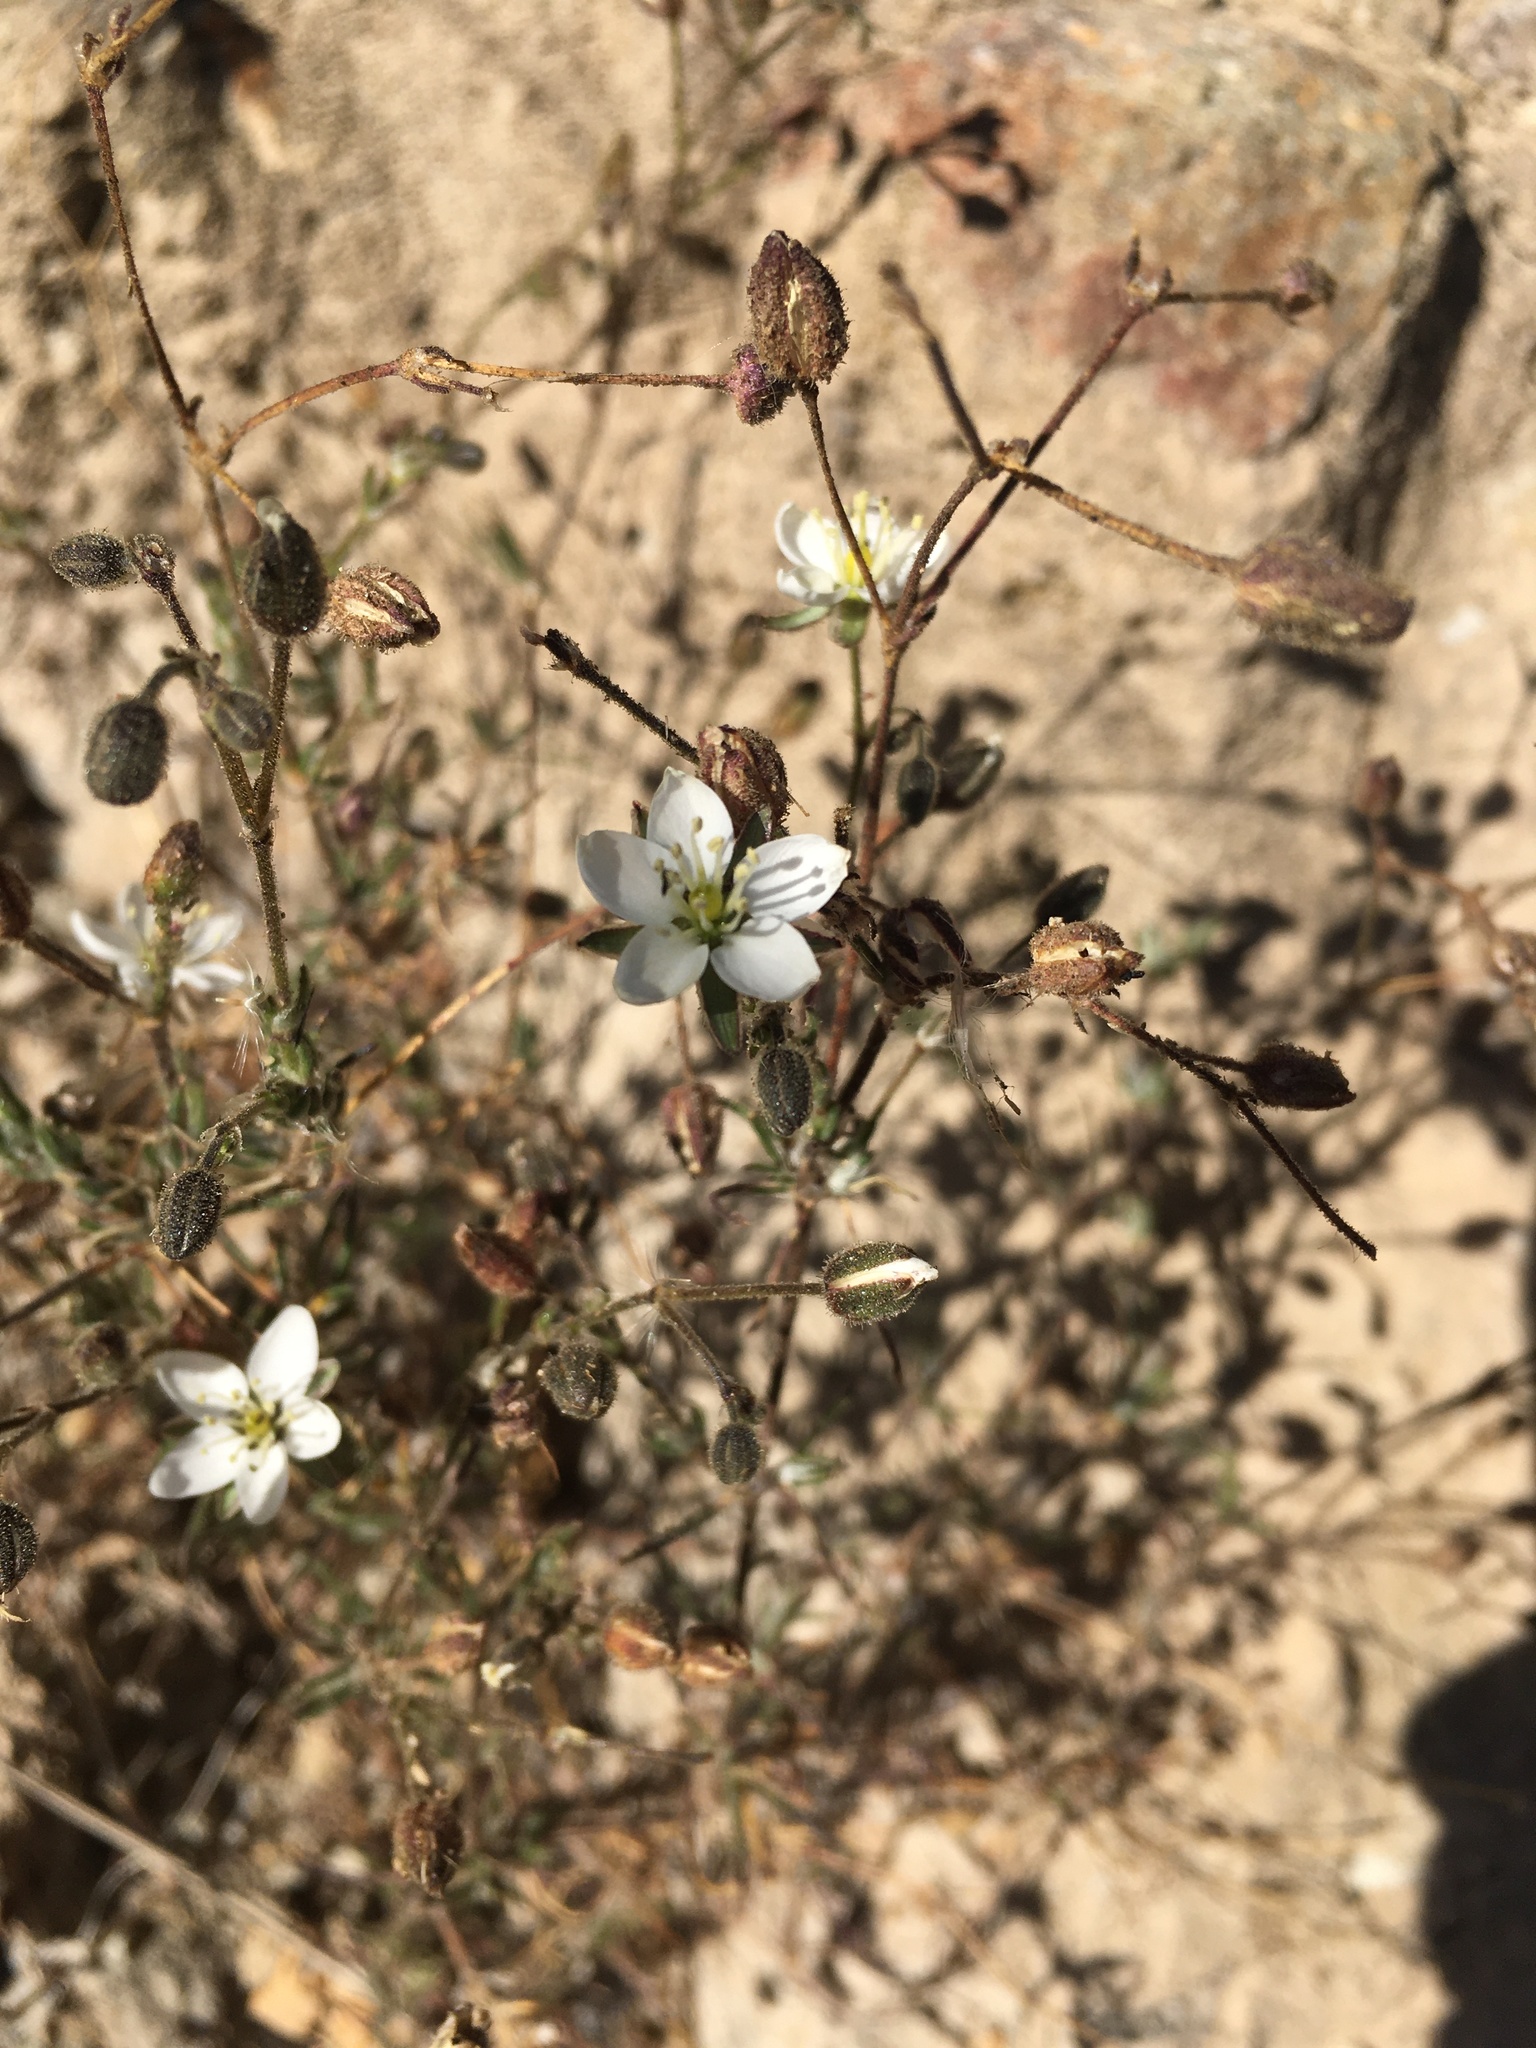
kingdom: Plantae
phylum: Tracheophyta
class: Magnoliopsida
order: Caryophyllales
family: Caryophyllaceae
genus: Spergularia
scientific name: Spergularia fasciculata
